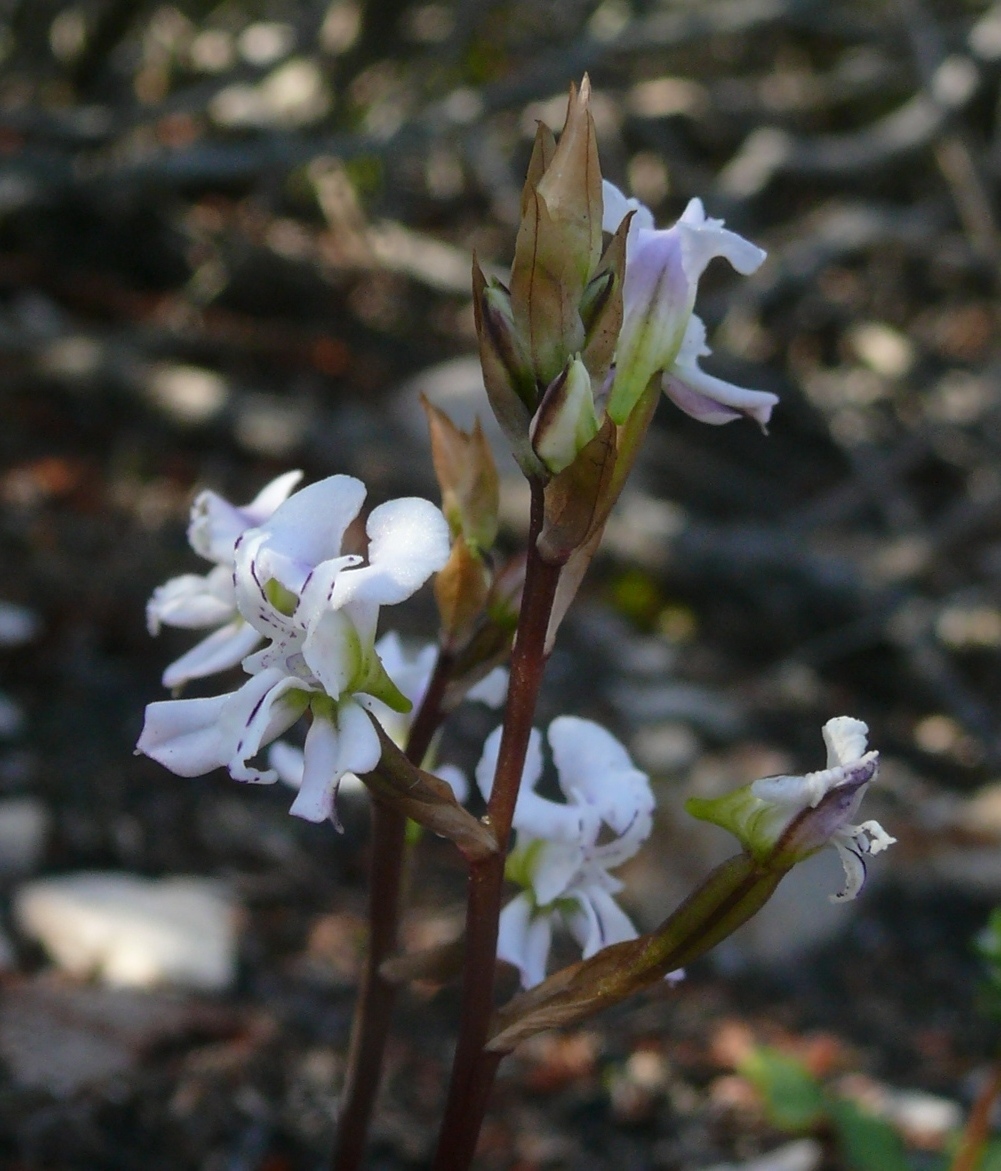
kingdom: Plantae
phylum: Tracheophyta
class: Liliopsida
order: Asparagales
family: Orchidaceae
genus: Disa
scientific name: Disa sagittalis
